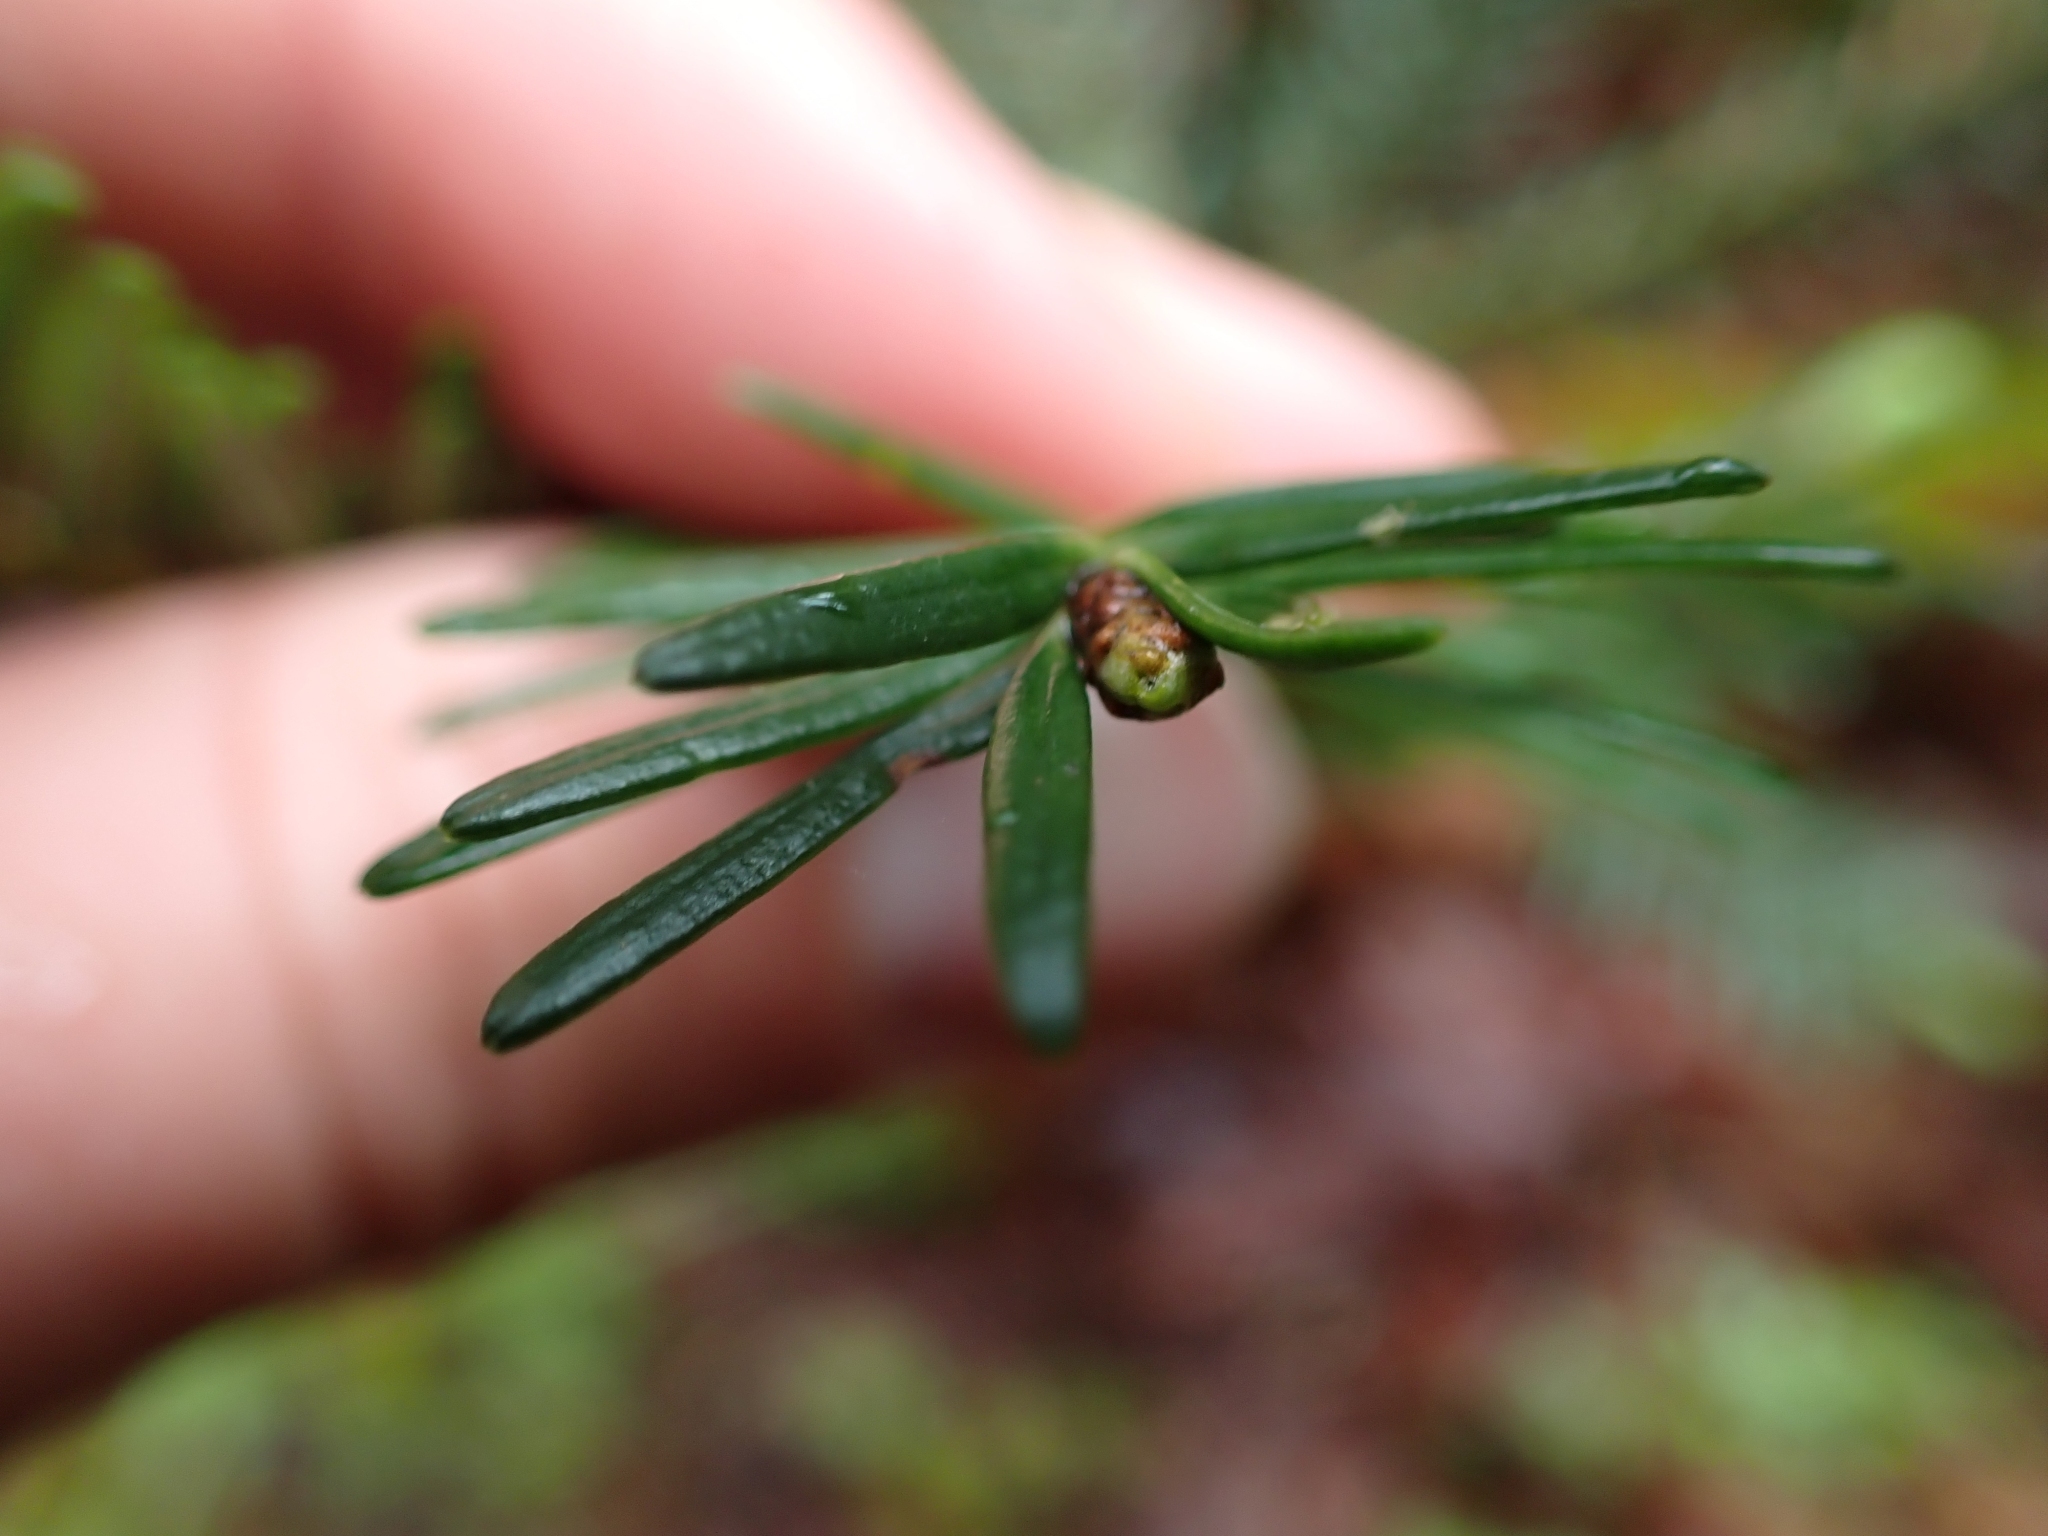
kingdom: Plantae
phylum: Tracheophyta
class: Pinopsida
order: Pinales
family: Pinaceae
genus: Abies
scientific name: Abies grandis
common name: Giant fir
